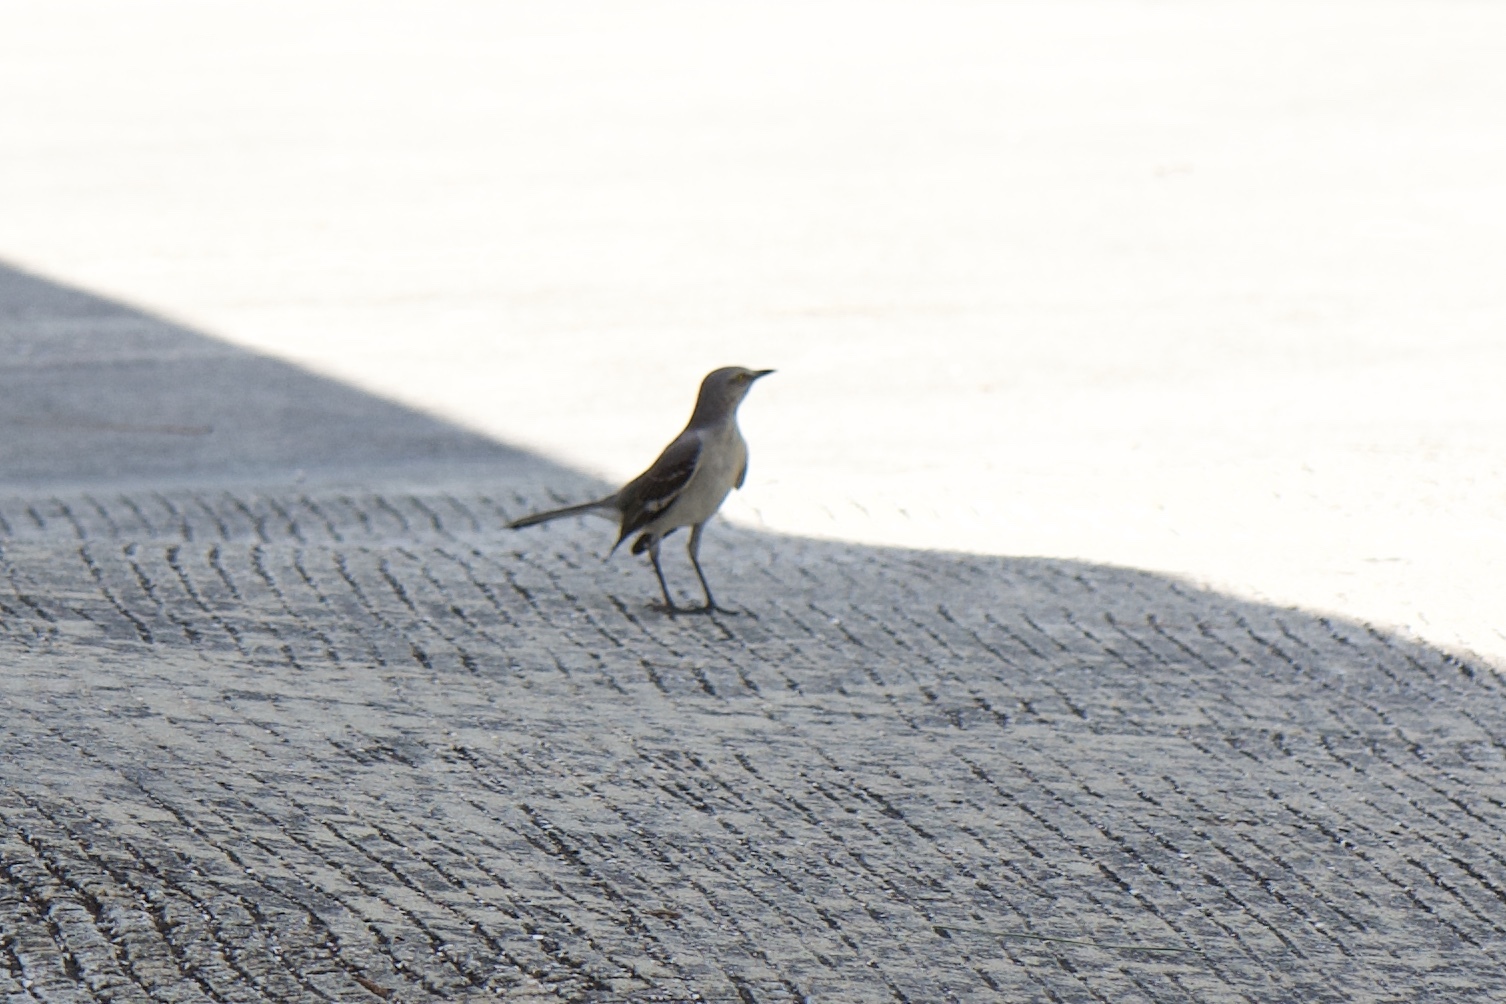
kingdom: Animalia
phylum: Chordata
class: Aves
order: Passeriformes
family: Mimidae
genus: Mimus
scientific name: Mimus polyglottos
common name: Northern mockingbird
